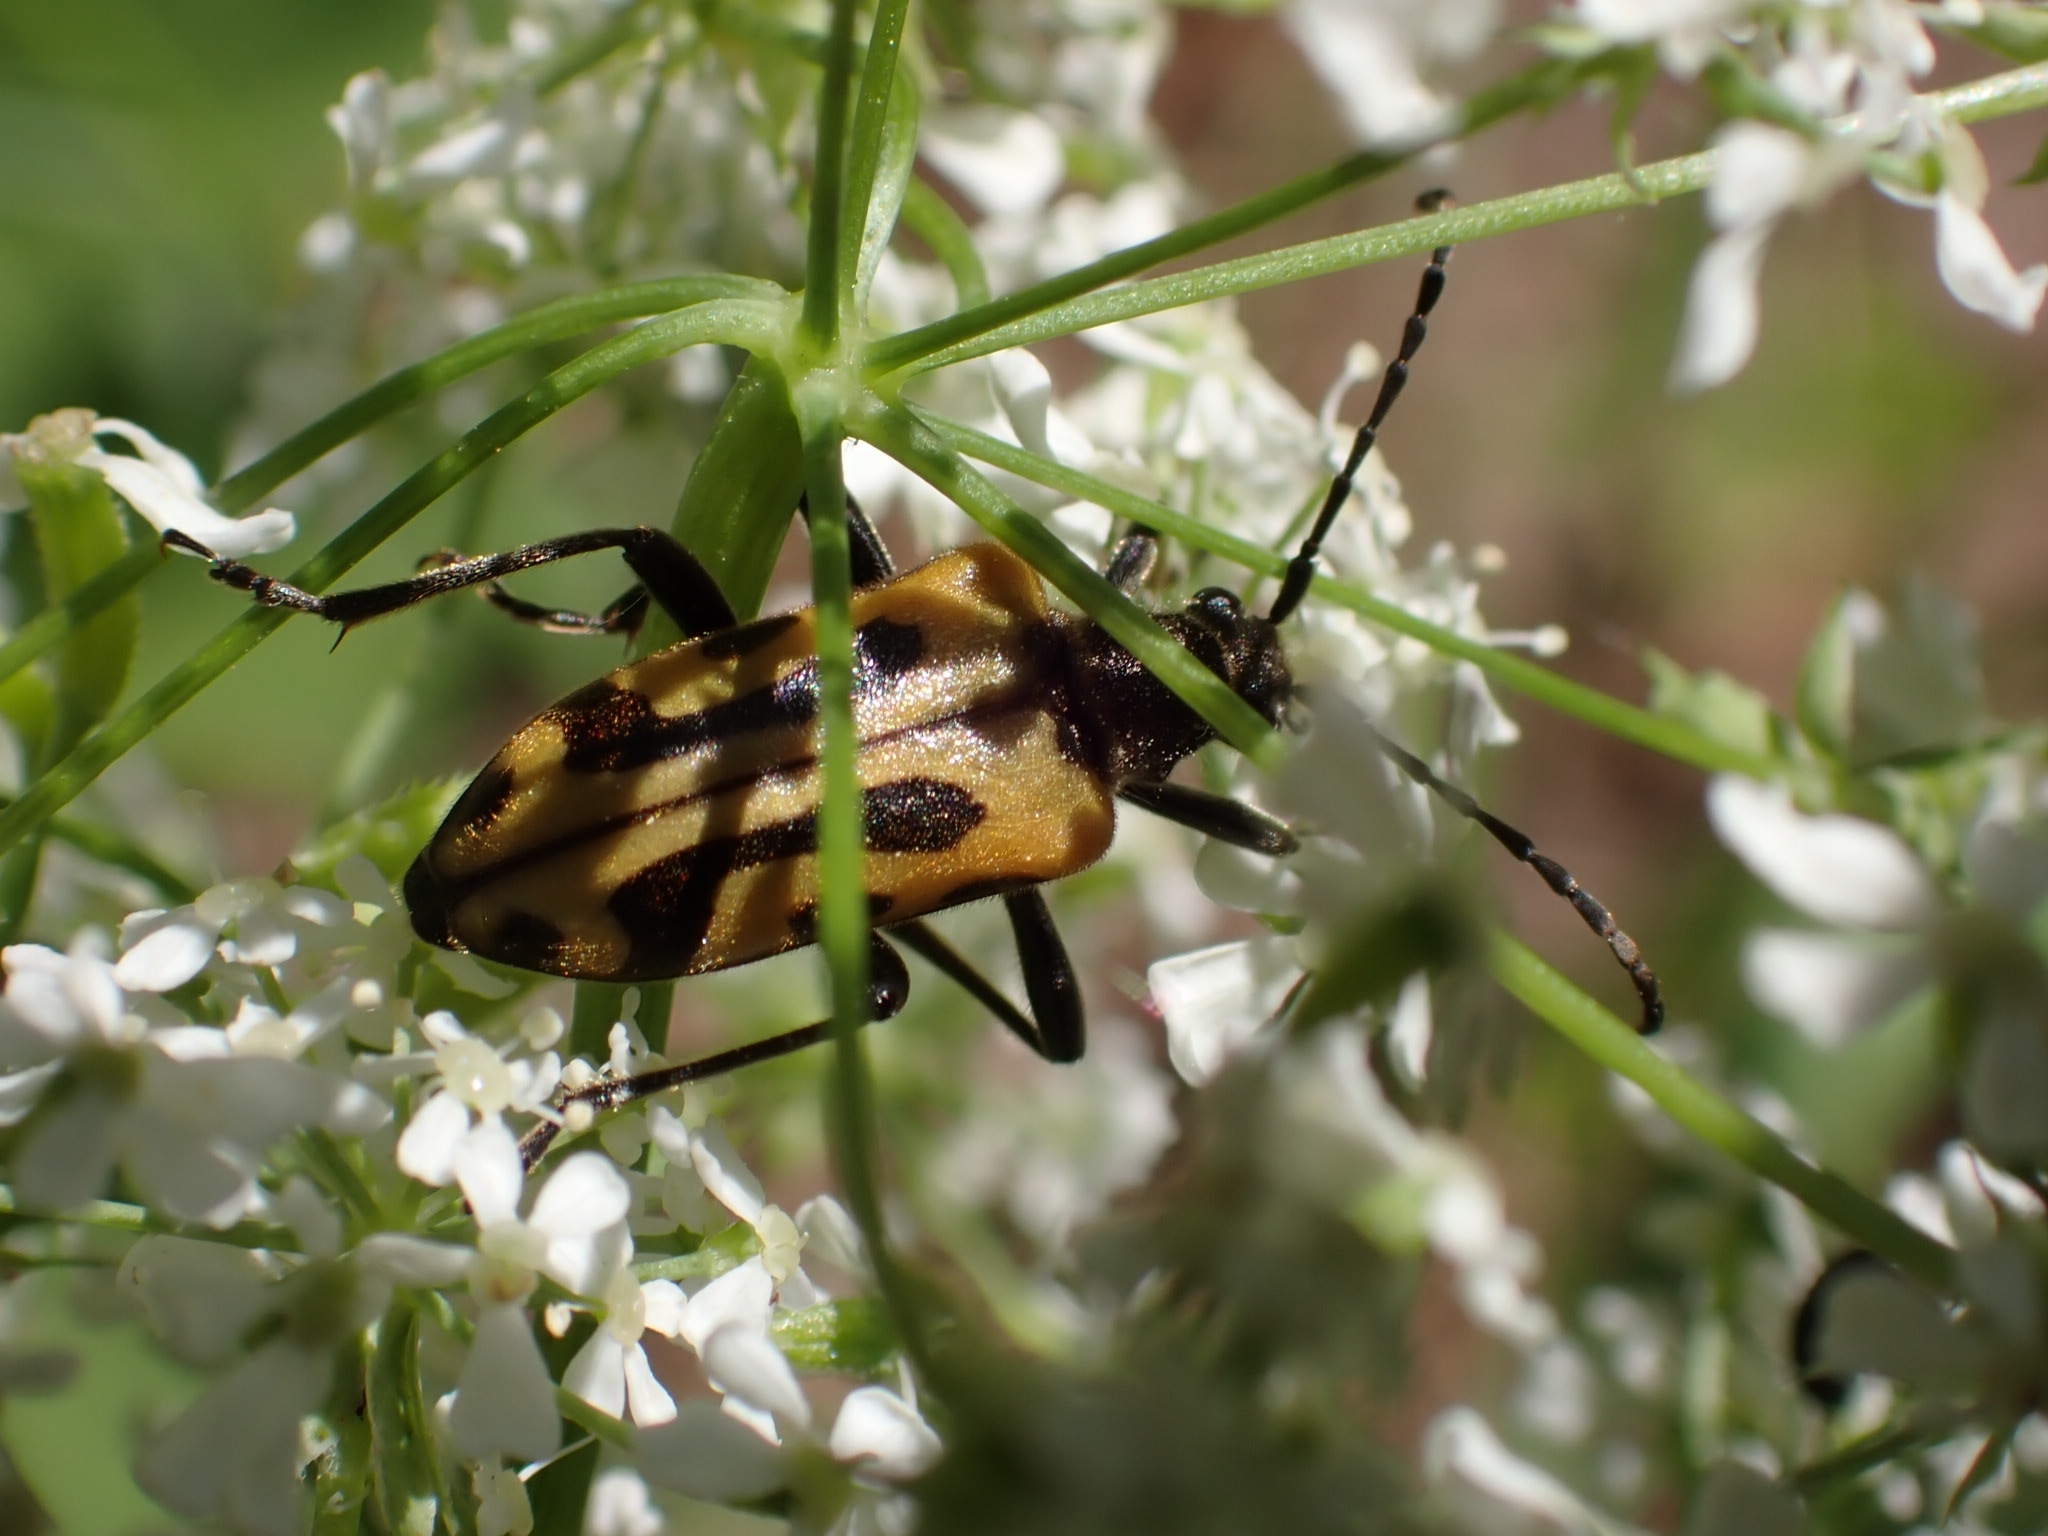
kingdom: Animalia
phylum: Arthropoda
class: Insecta
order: Coleoptera
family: Cerambycidae
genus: Brachyta
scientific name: Brachyta interrogationis
